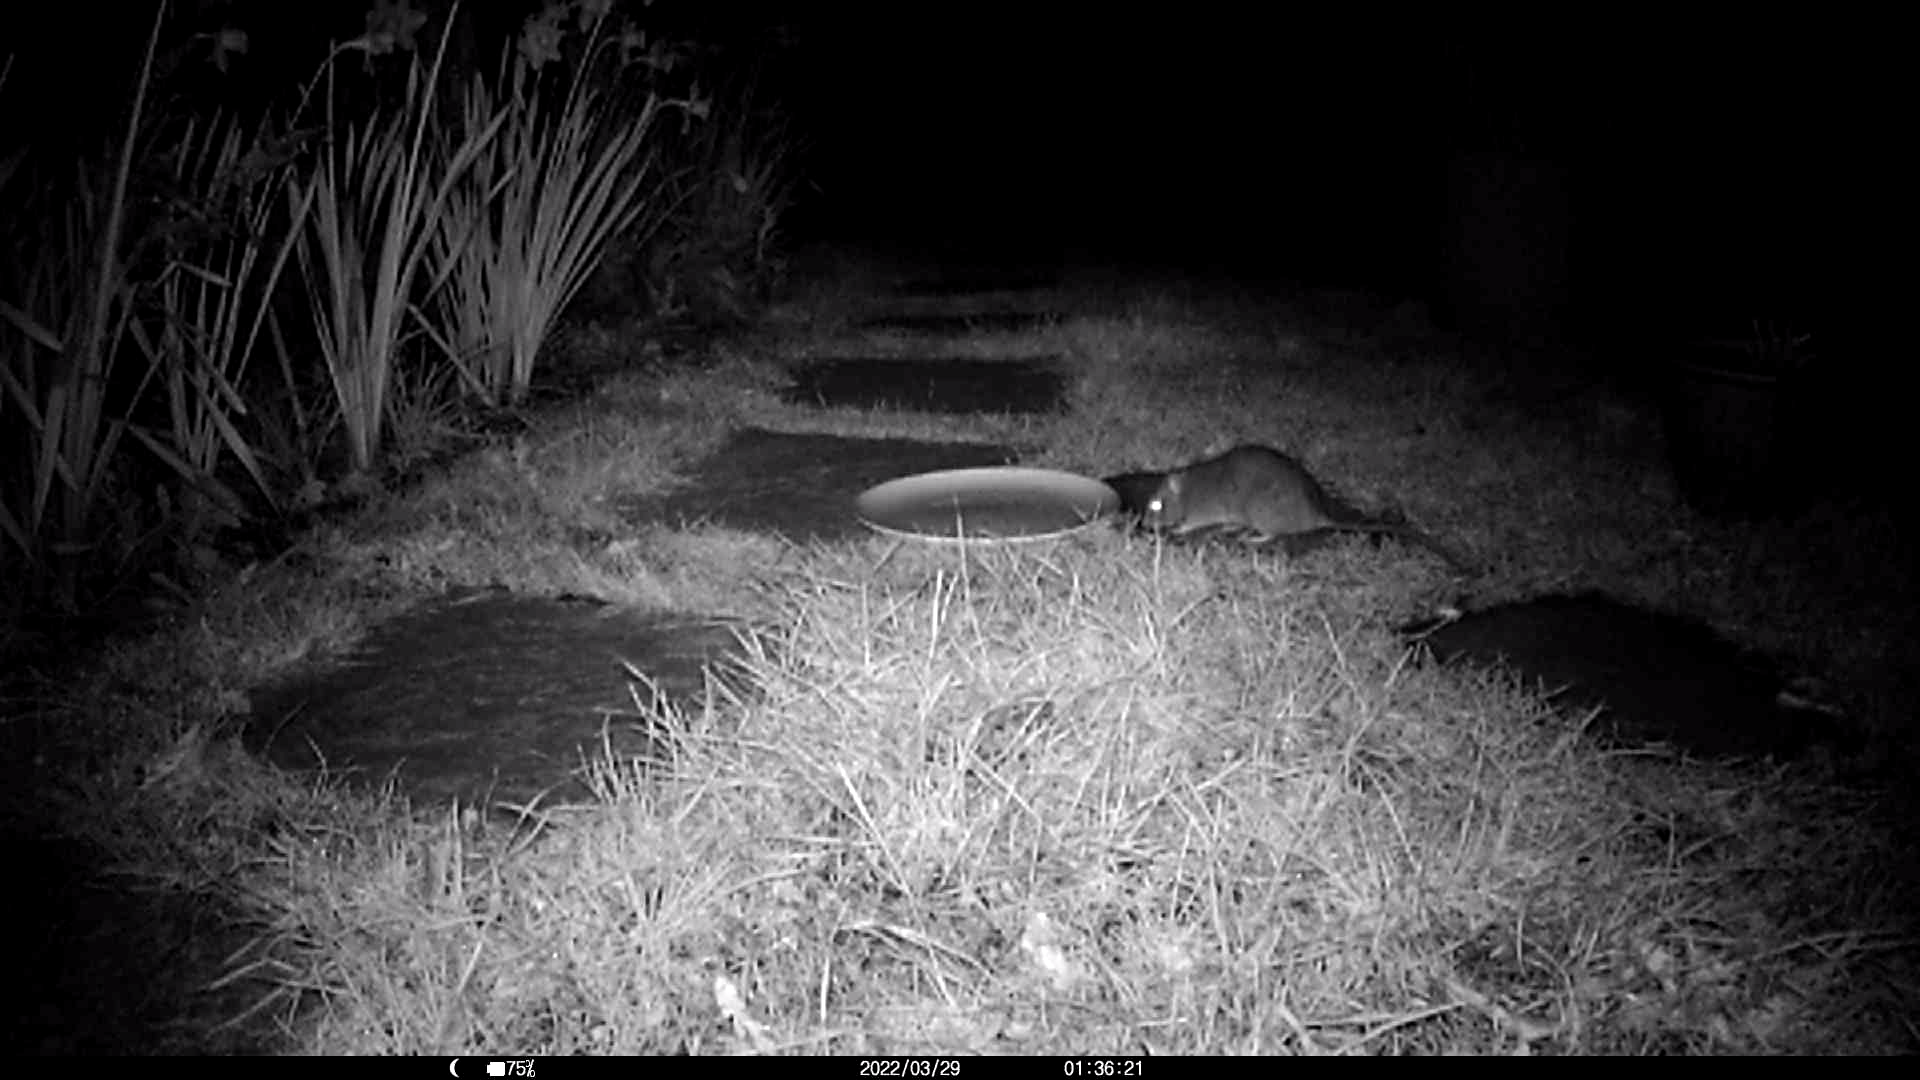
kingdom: Animalia
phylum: Chordata
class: Mammalia
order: Rodentia
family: Muridae
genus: Rattus
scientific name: Rattus norvegicus
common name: Brown rat
